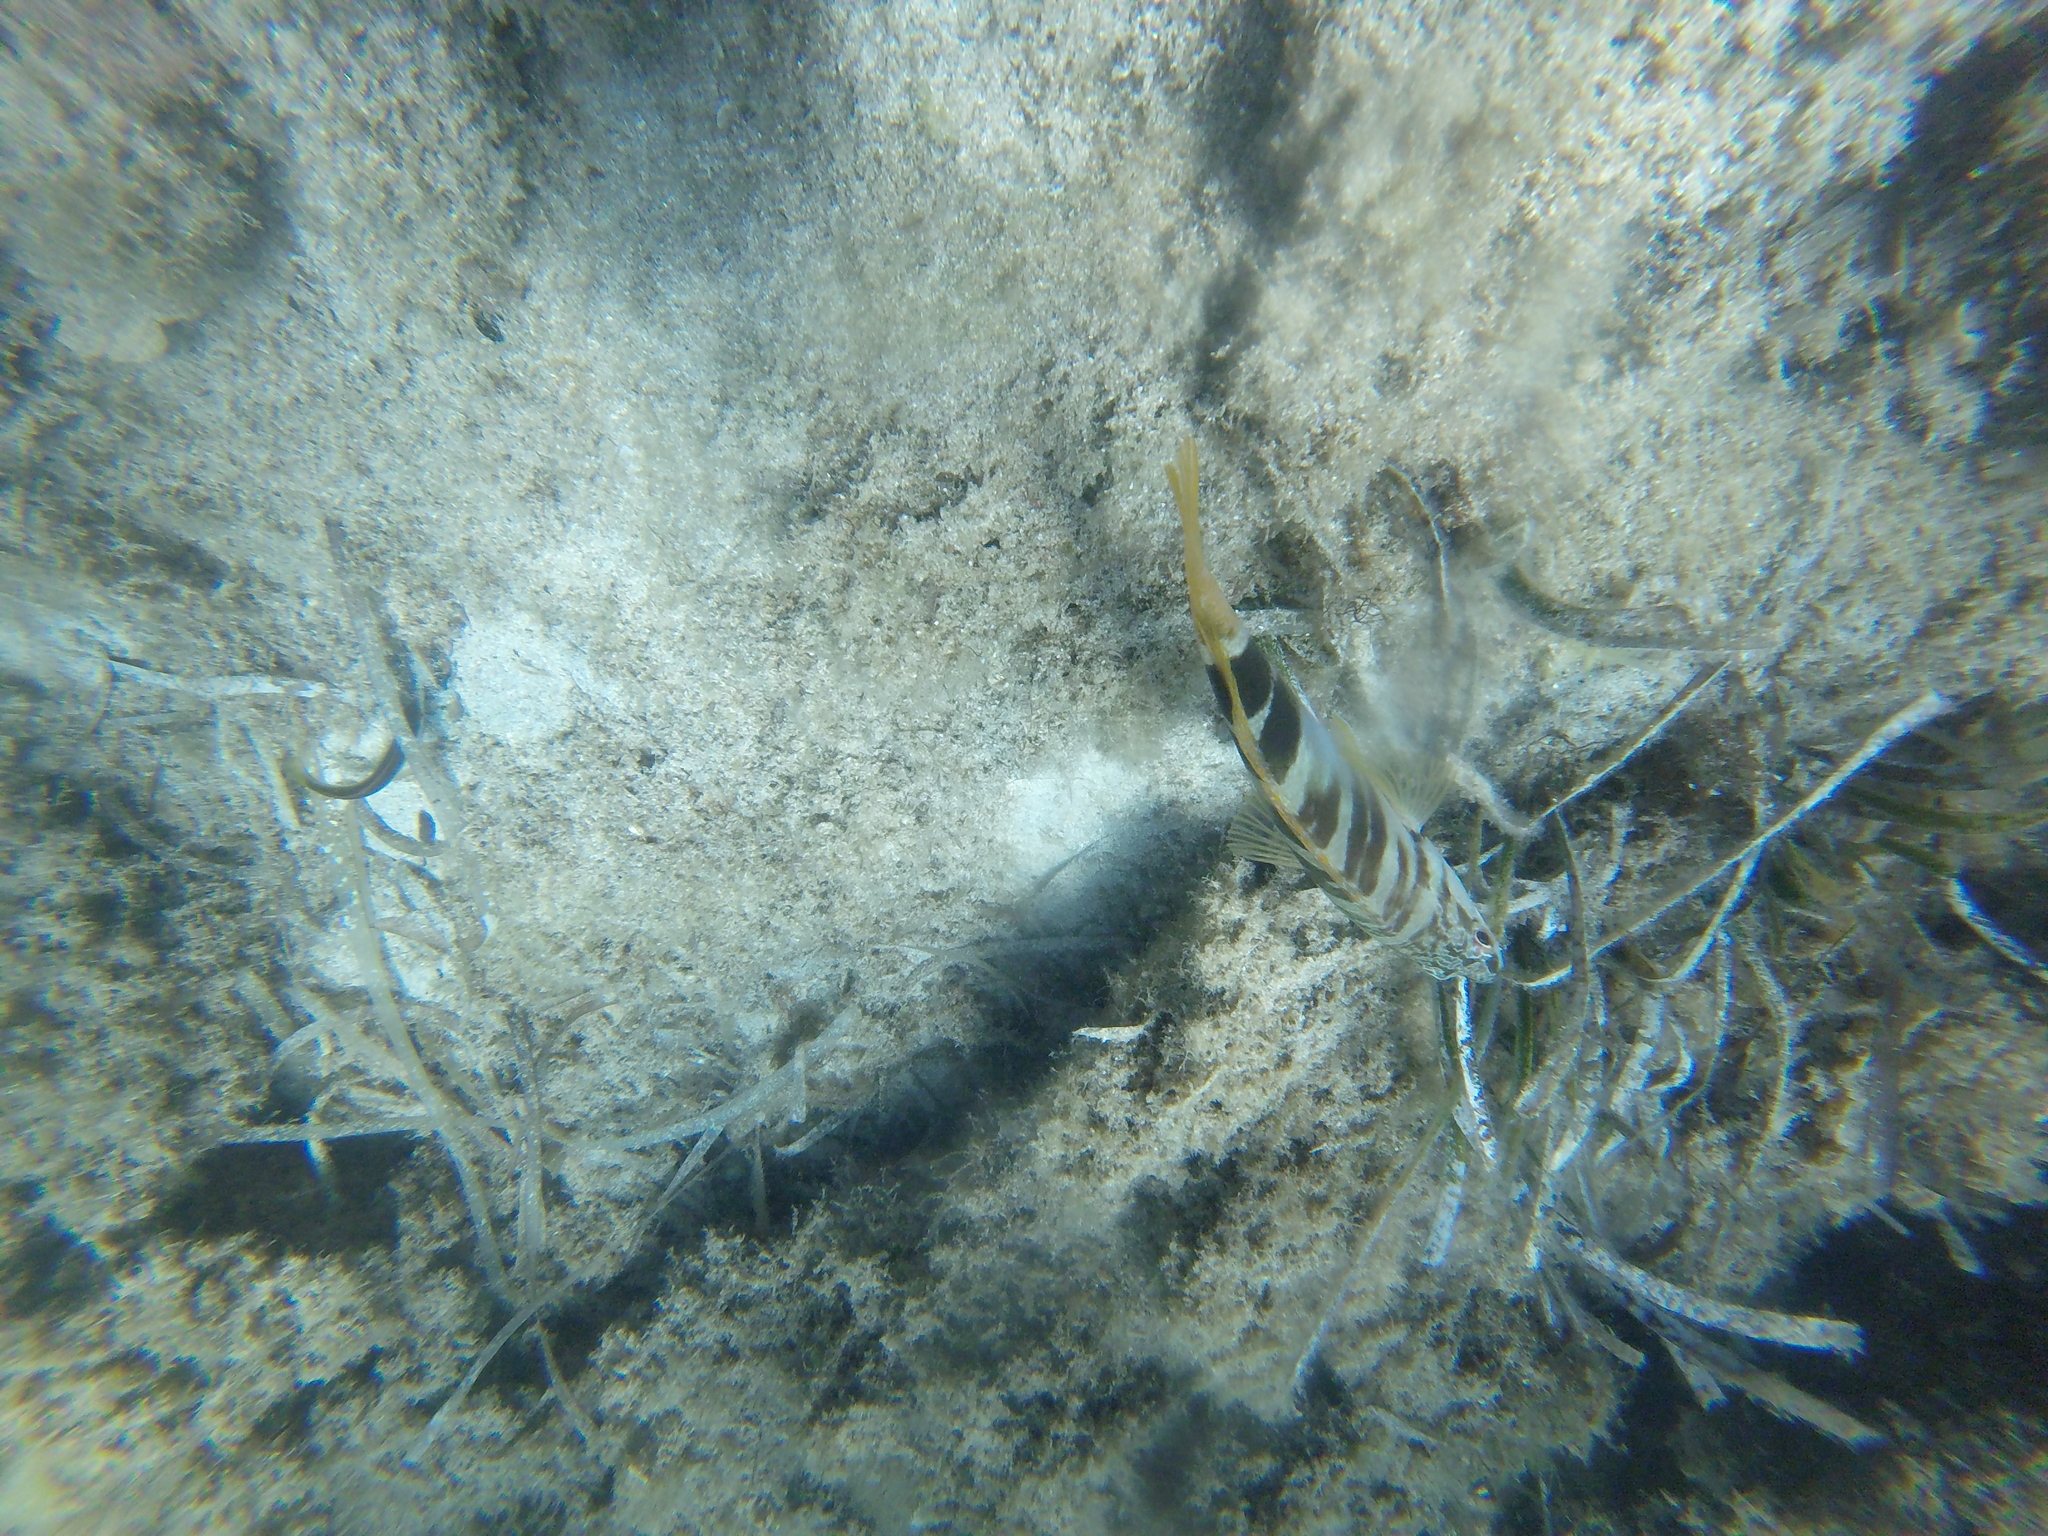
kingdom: Animalia
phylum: Chordata
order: Perciformes
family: Serranidae
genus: Serranus
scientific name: Serranus scriba
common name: Painted comber
